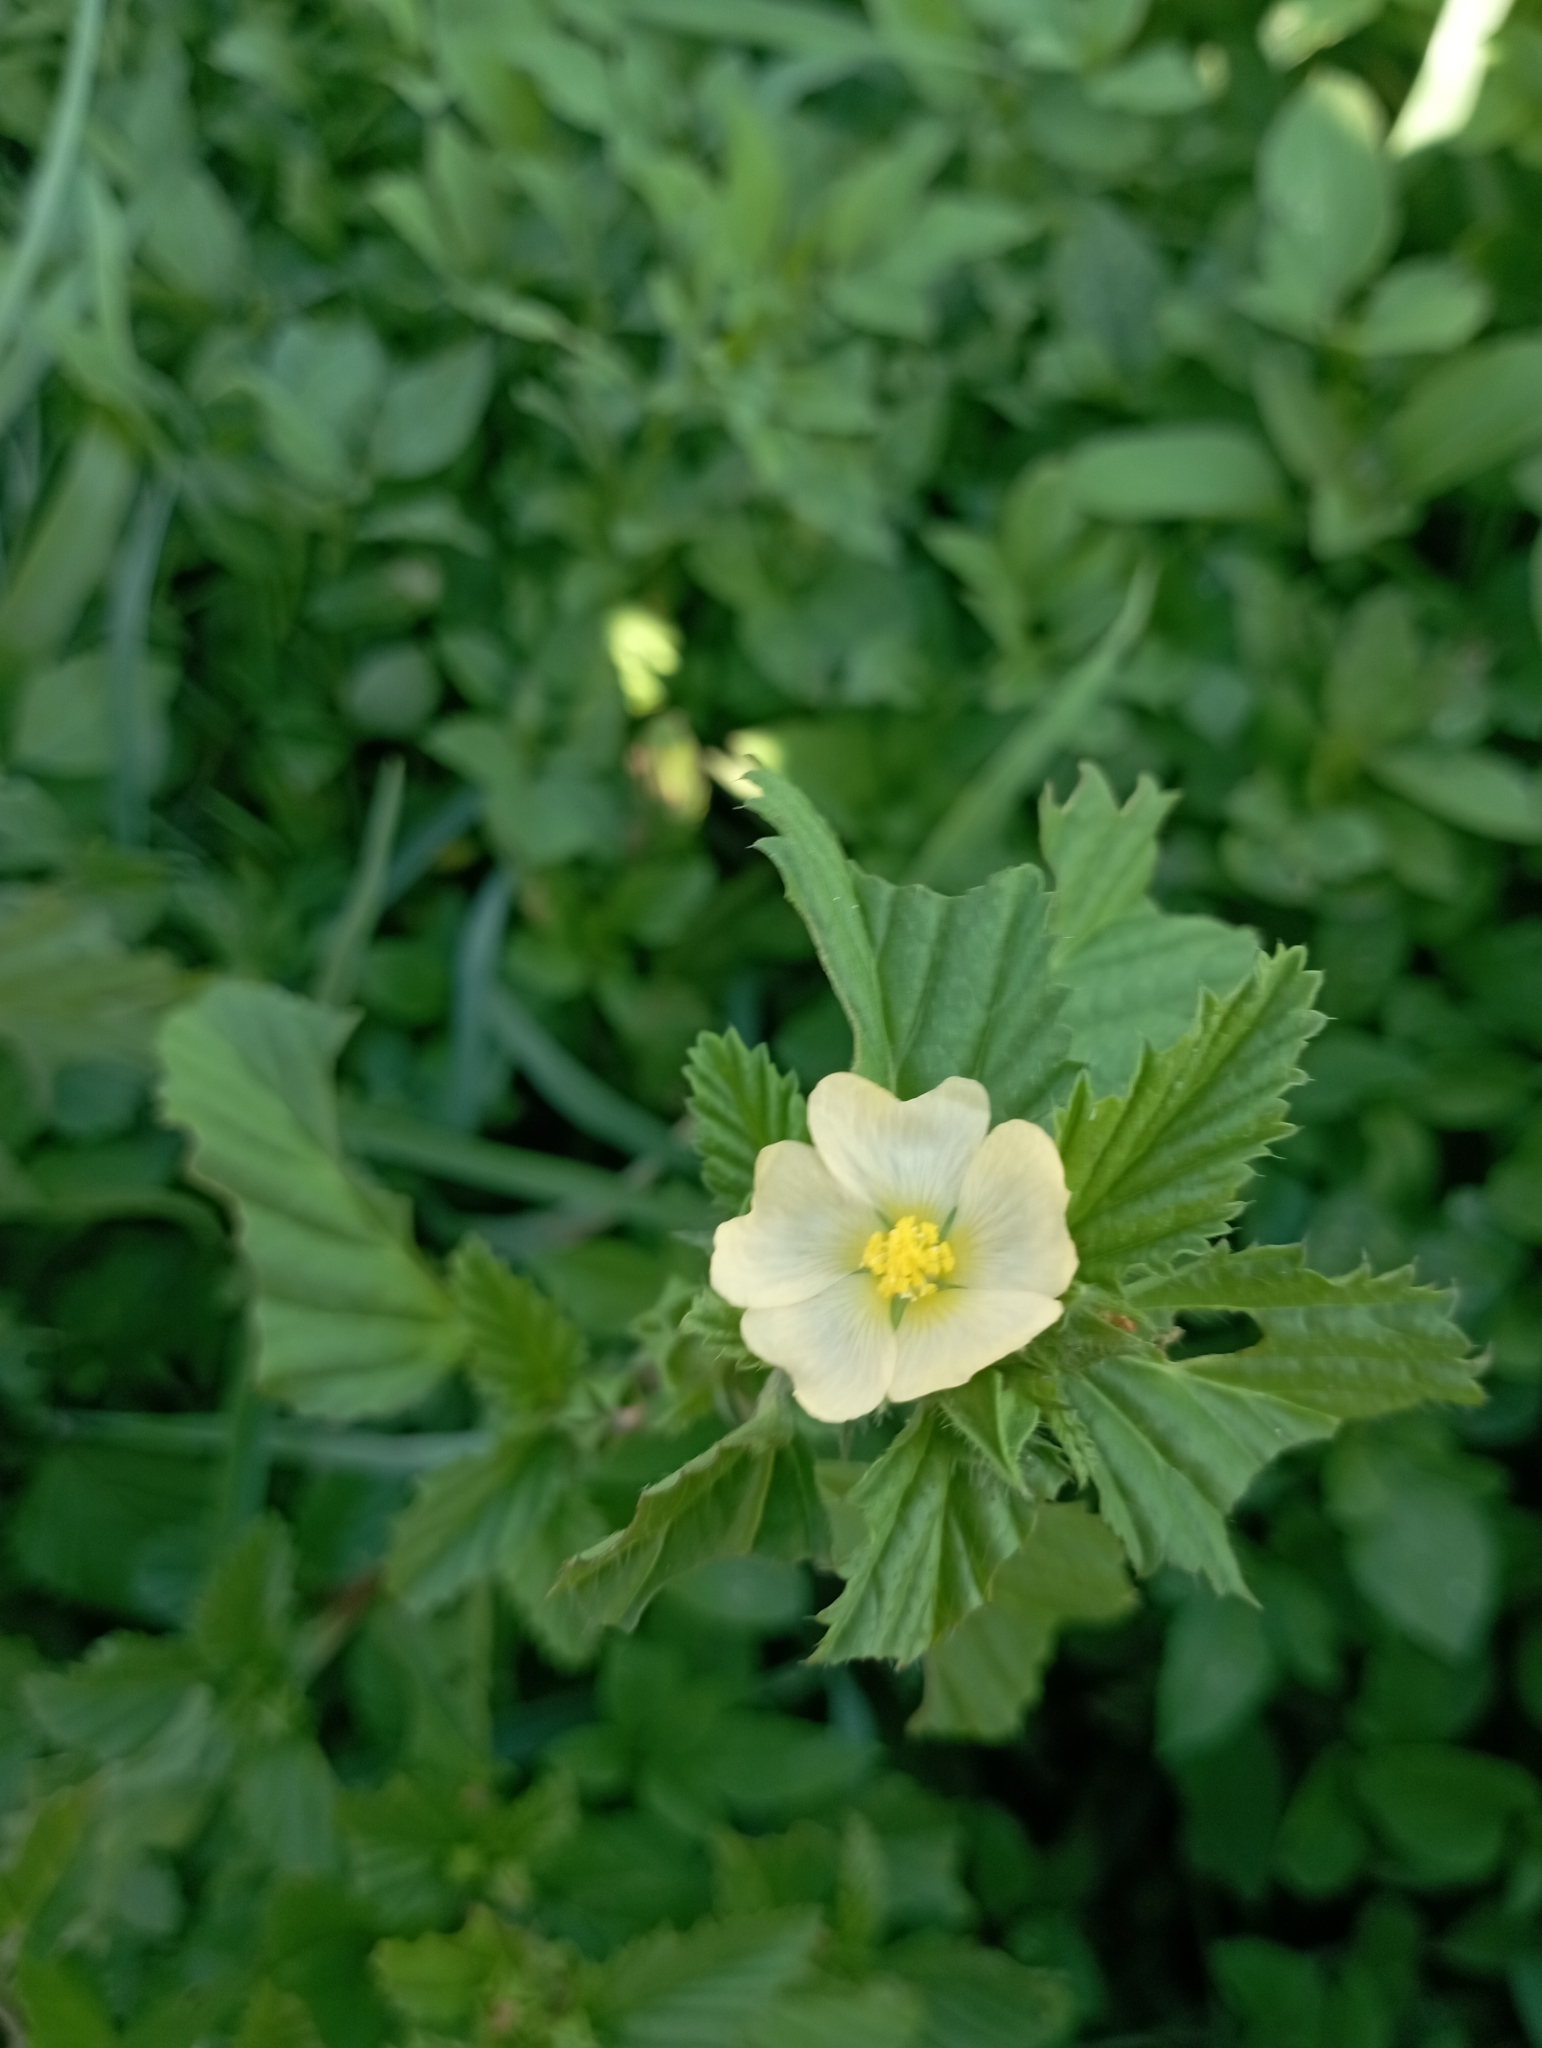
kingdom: Plantae
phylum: Tracheophyta
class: Magnoliopsida
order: Malvales
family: Malvaceae
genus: Malvastrum
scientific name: Malvastrum coromandelianum
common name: Threelobe false mallow
